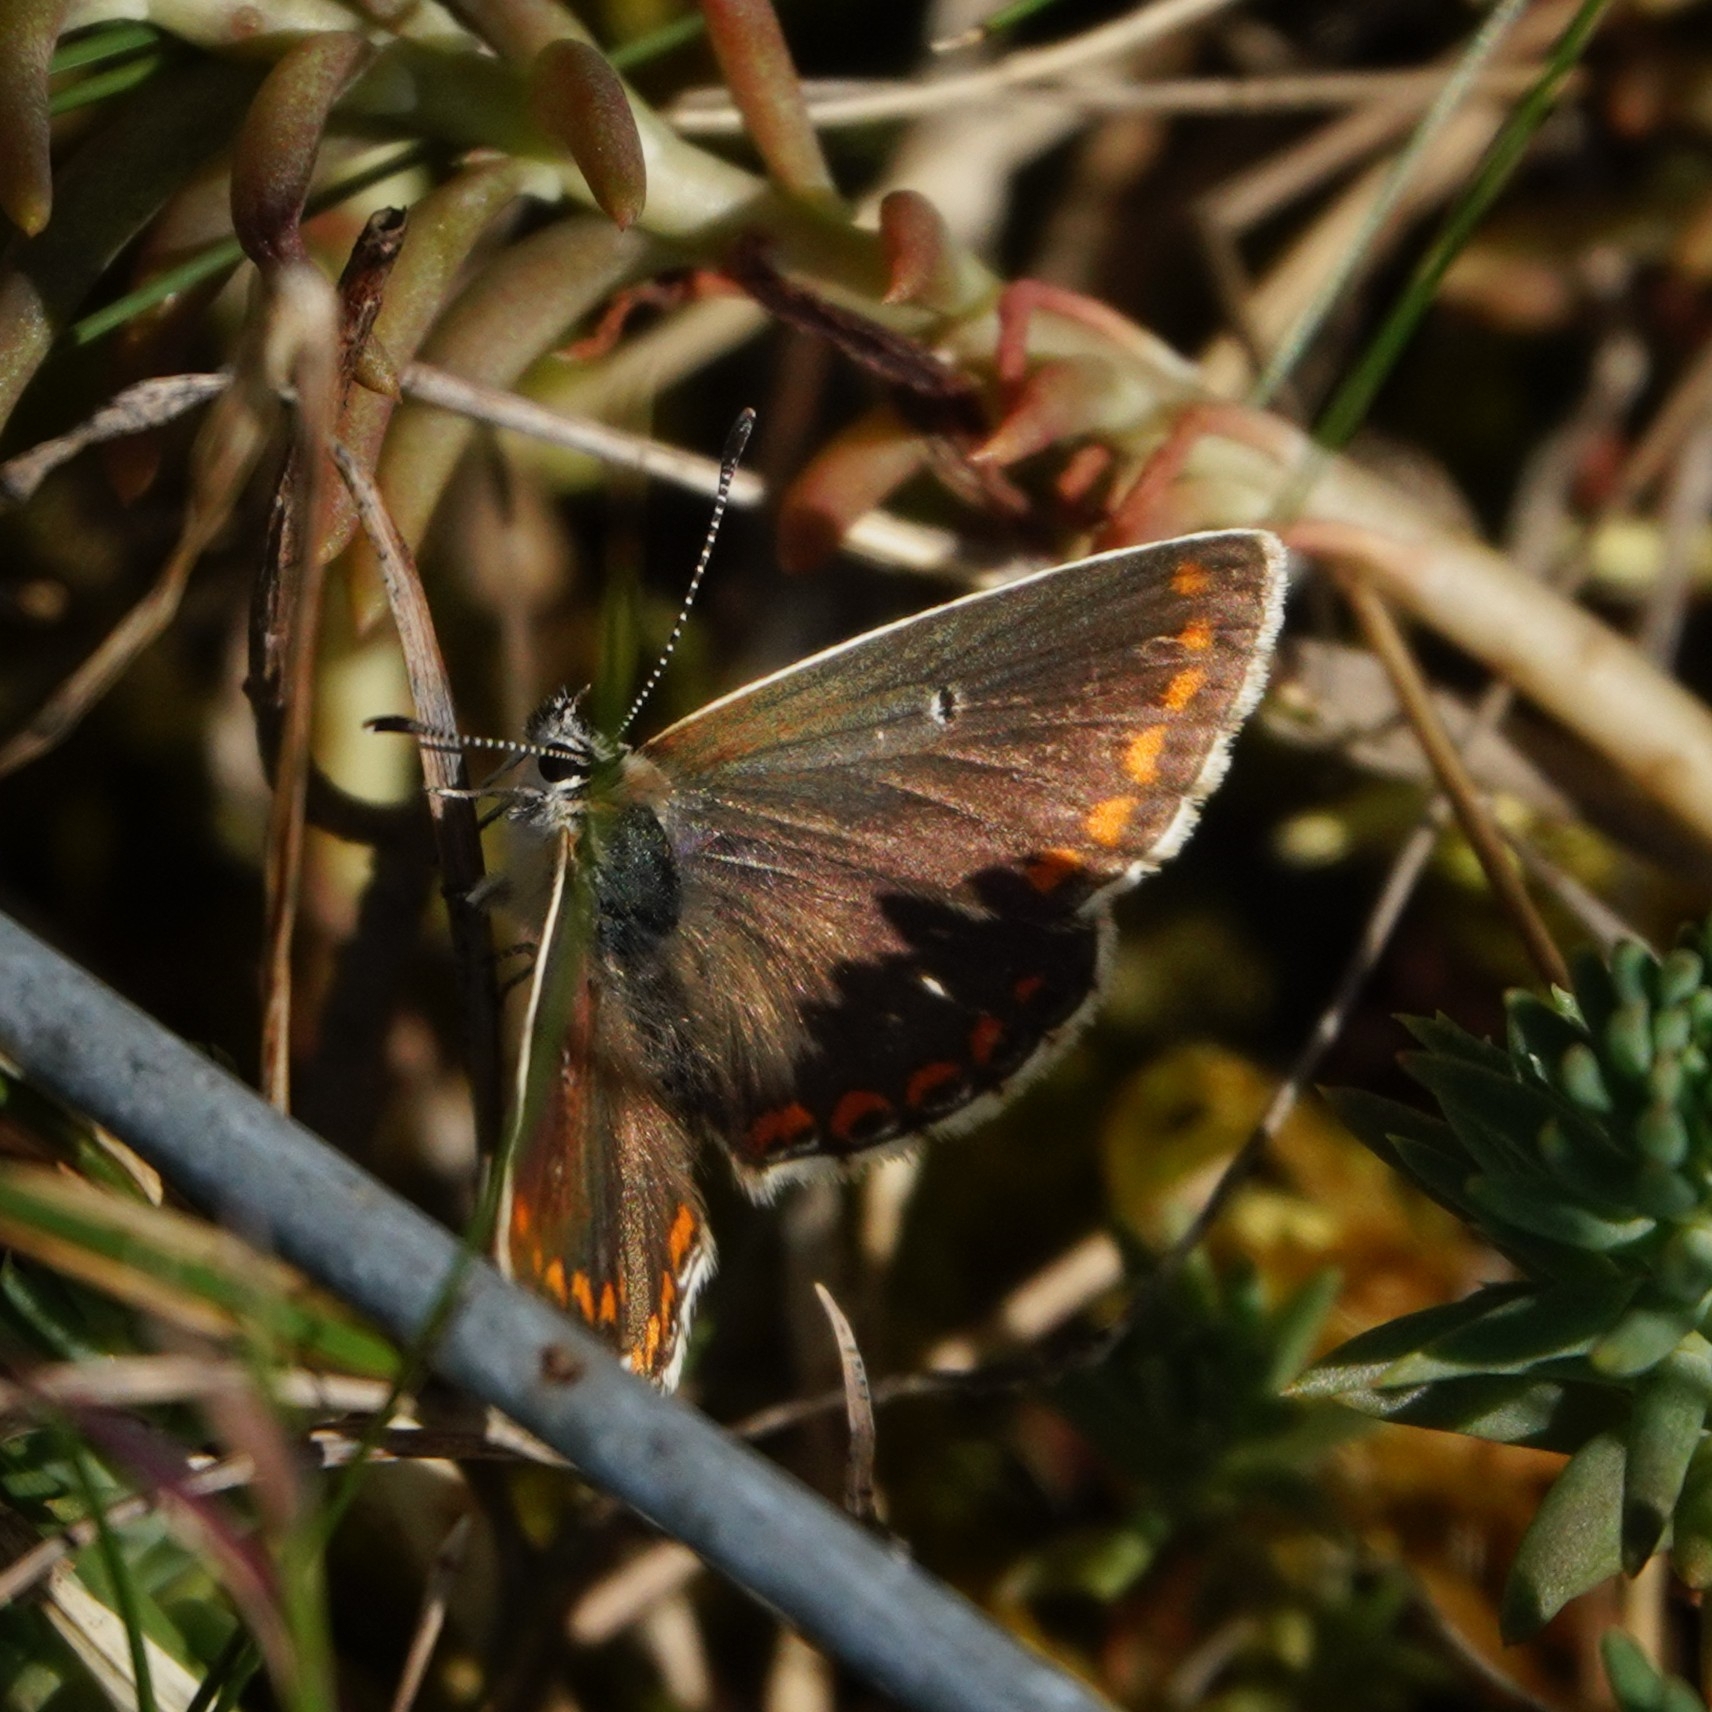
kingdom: Animalia
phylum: Arthropoda
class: Insecta
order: Lepidoptera
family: Lycaenidae
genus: Aricia
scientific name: Aricia artaxerxes
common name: Northern brown argus
